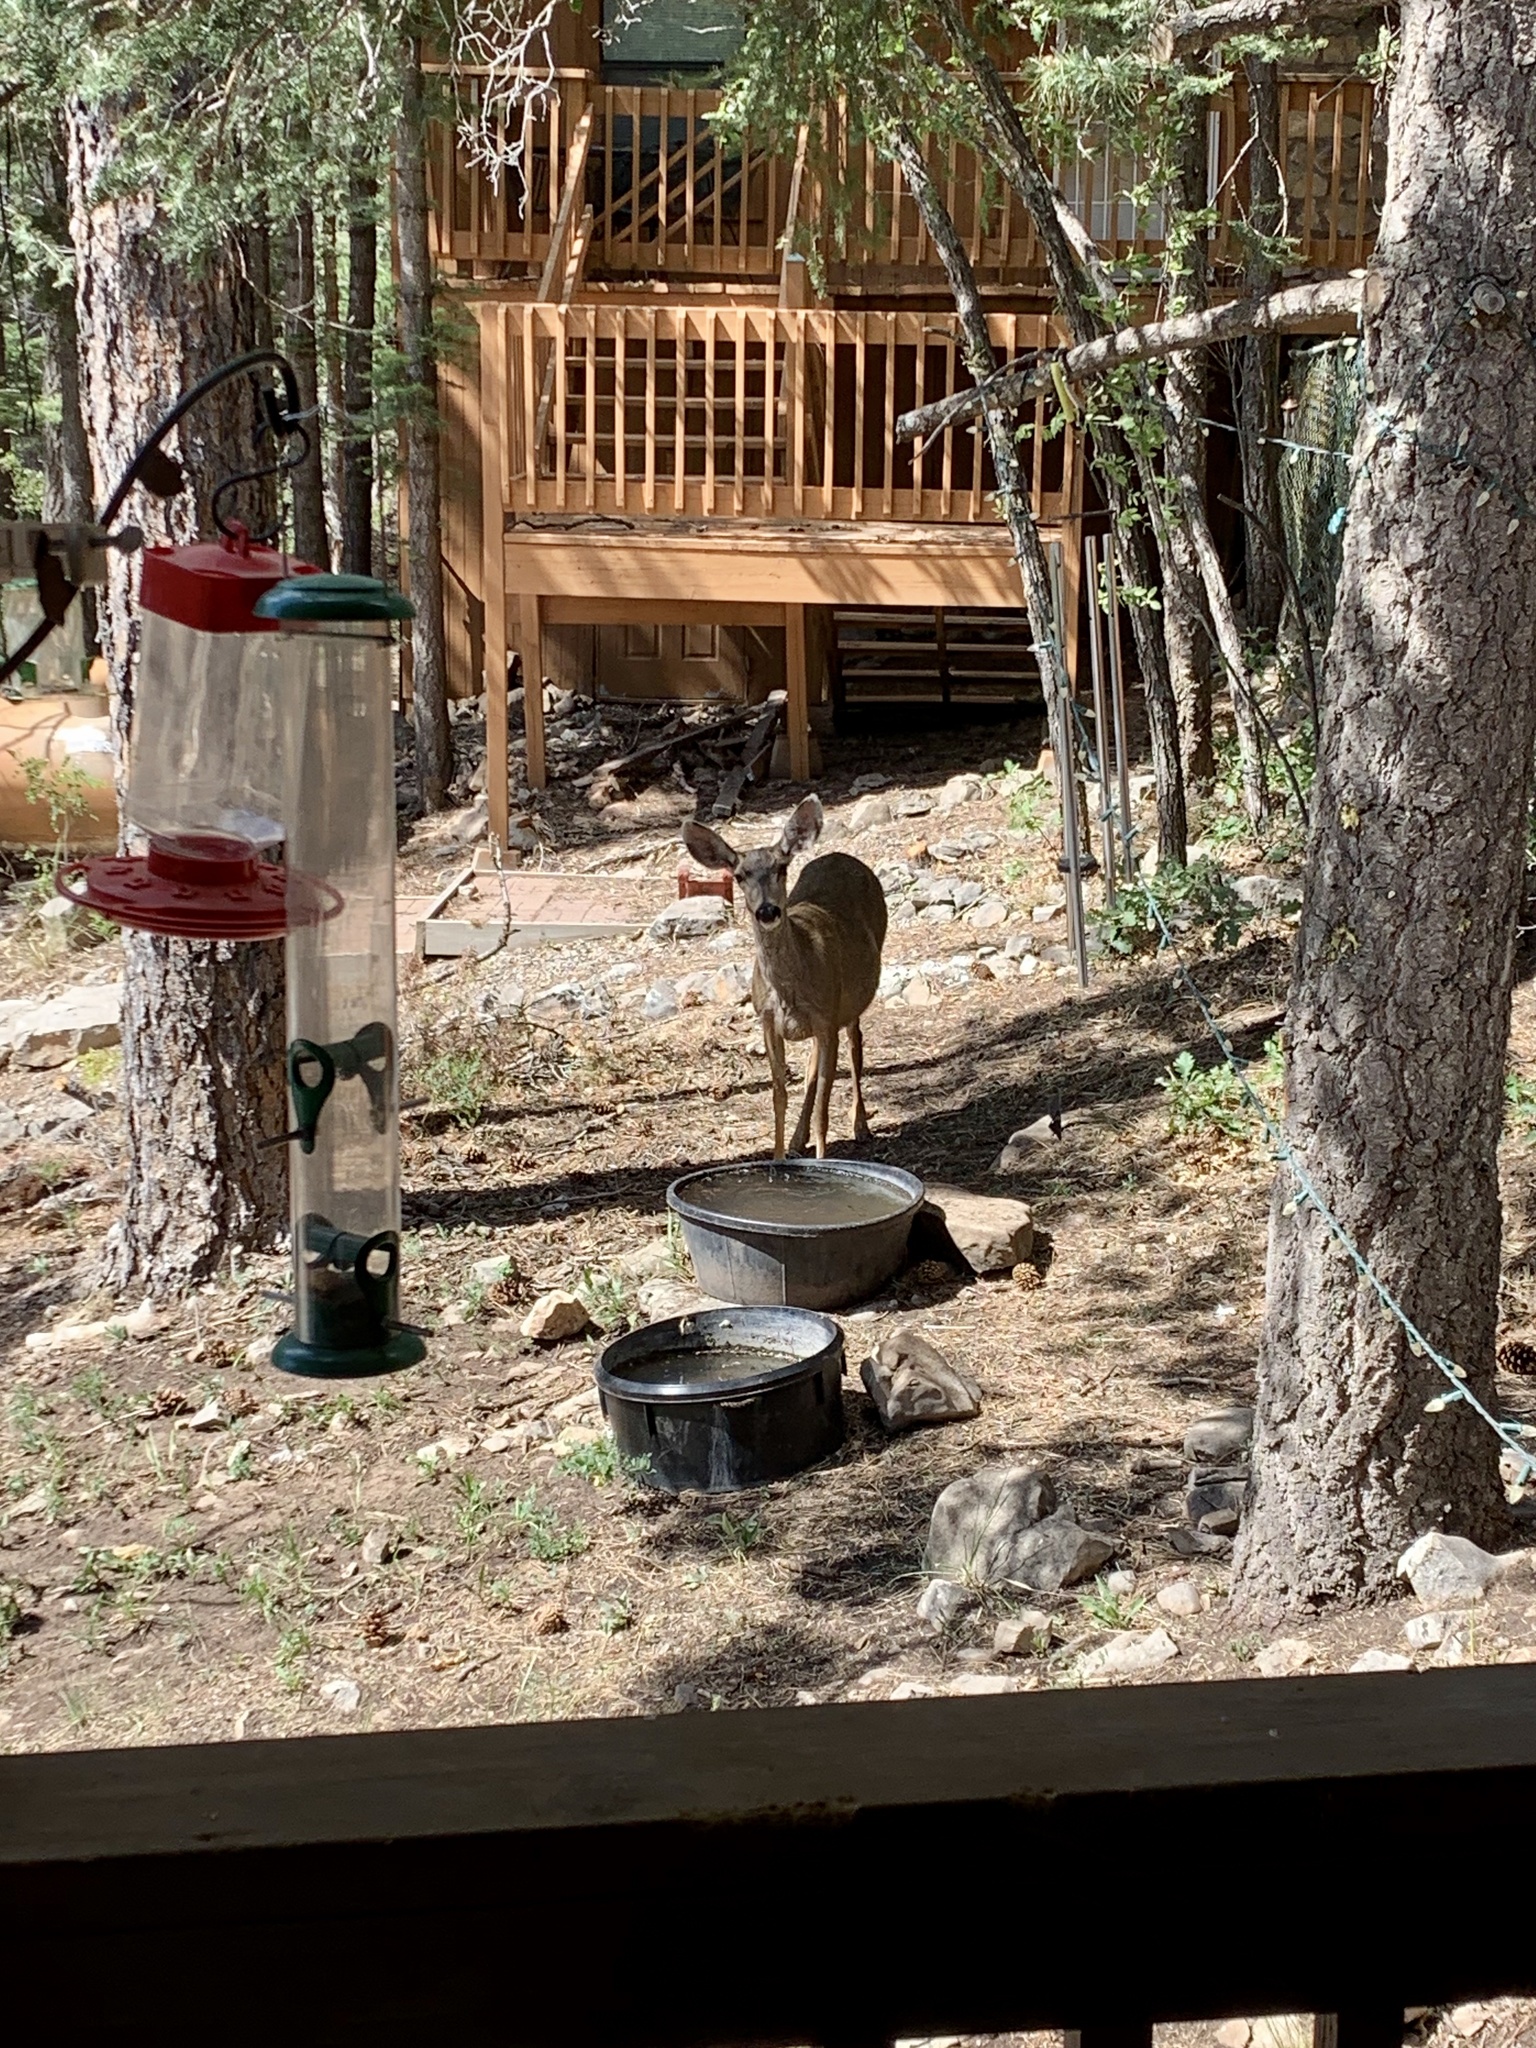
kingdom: Animalia
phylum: Chordata
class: Mammalia
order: Artiodactyla
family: Cervidae
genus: Odocoileus
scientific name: Odocoileus hemionus
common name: Mule deer
